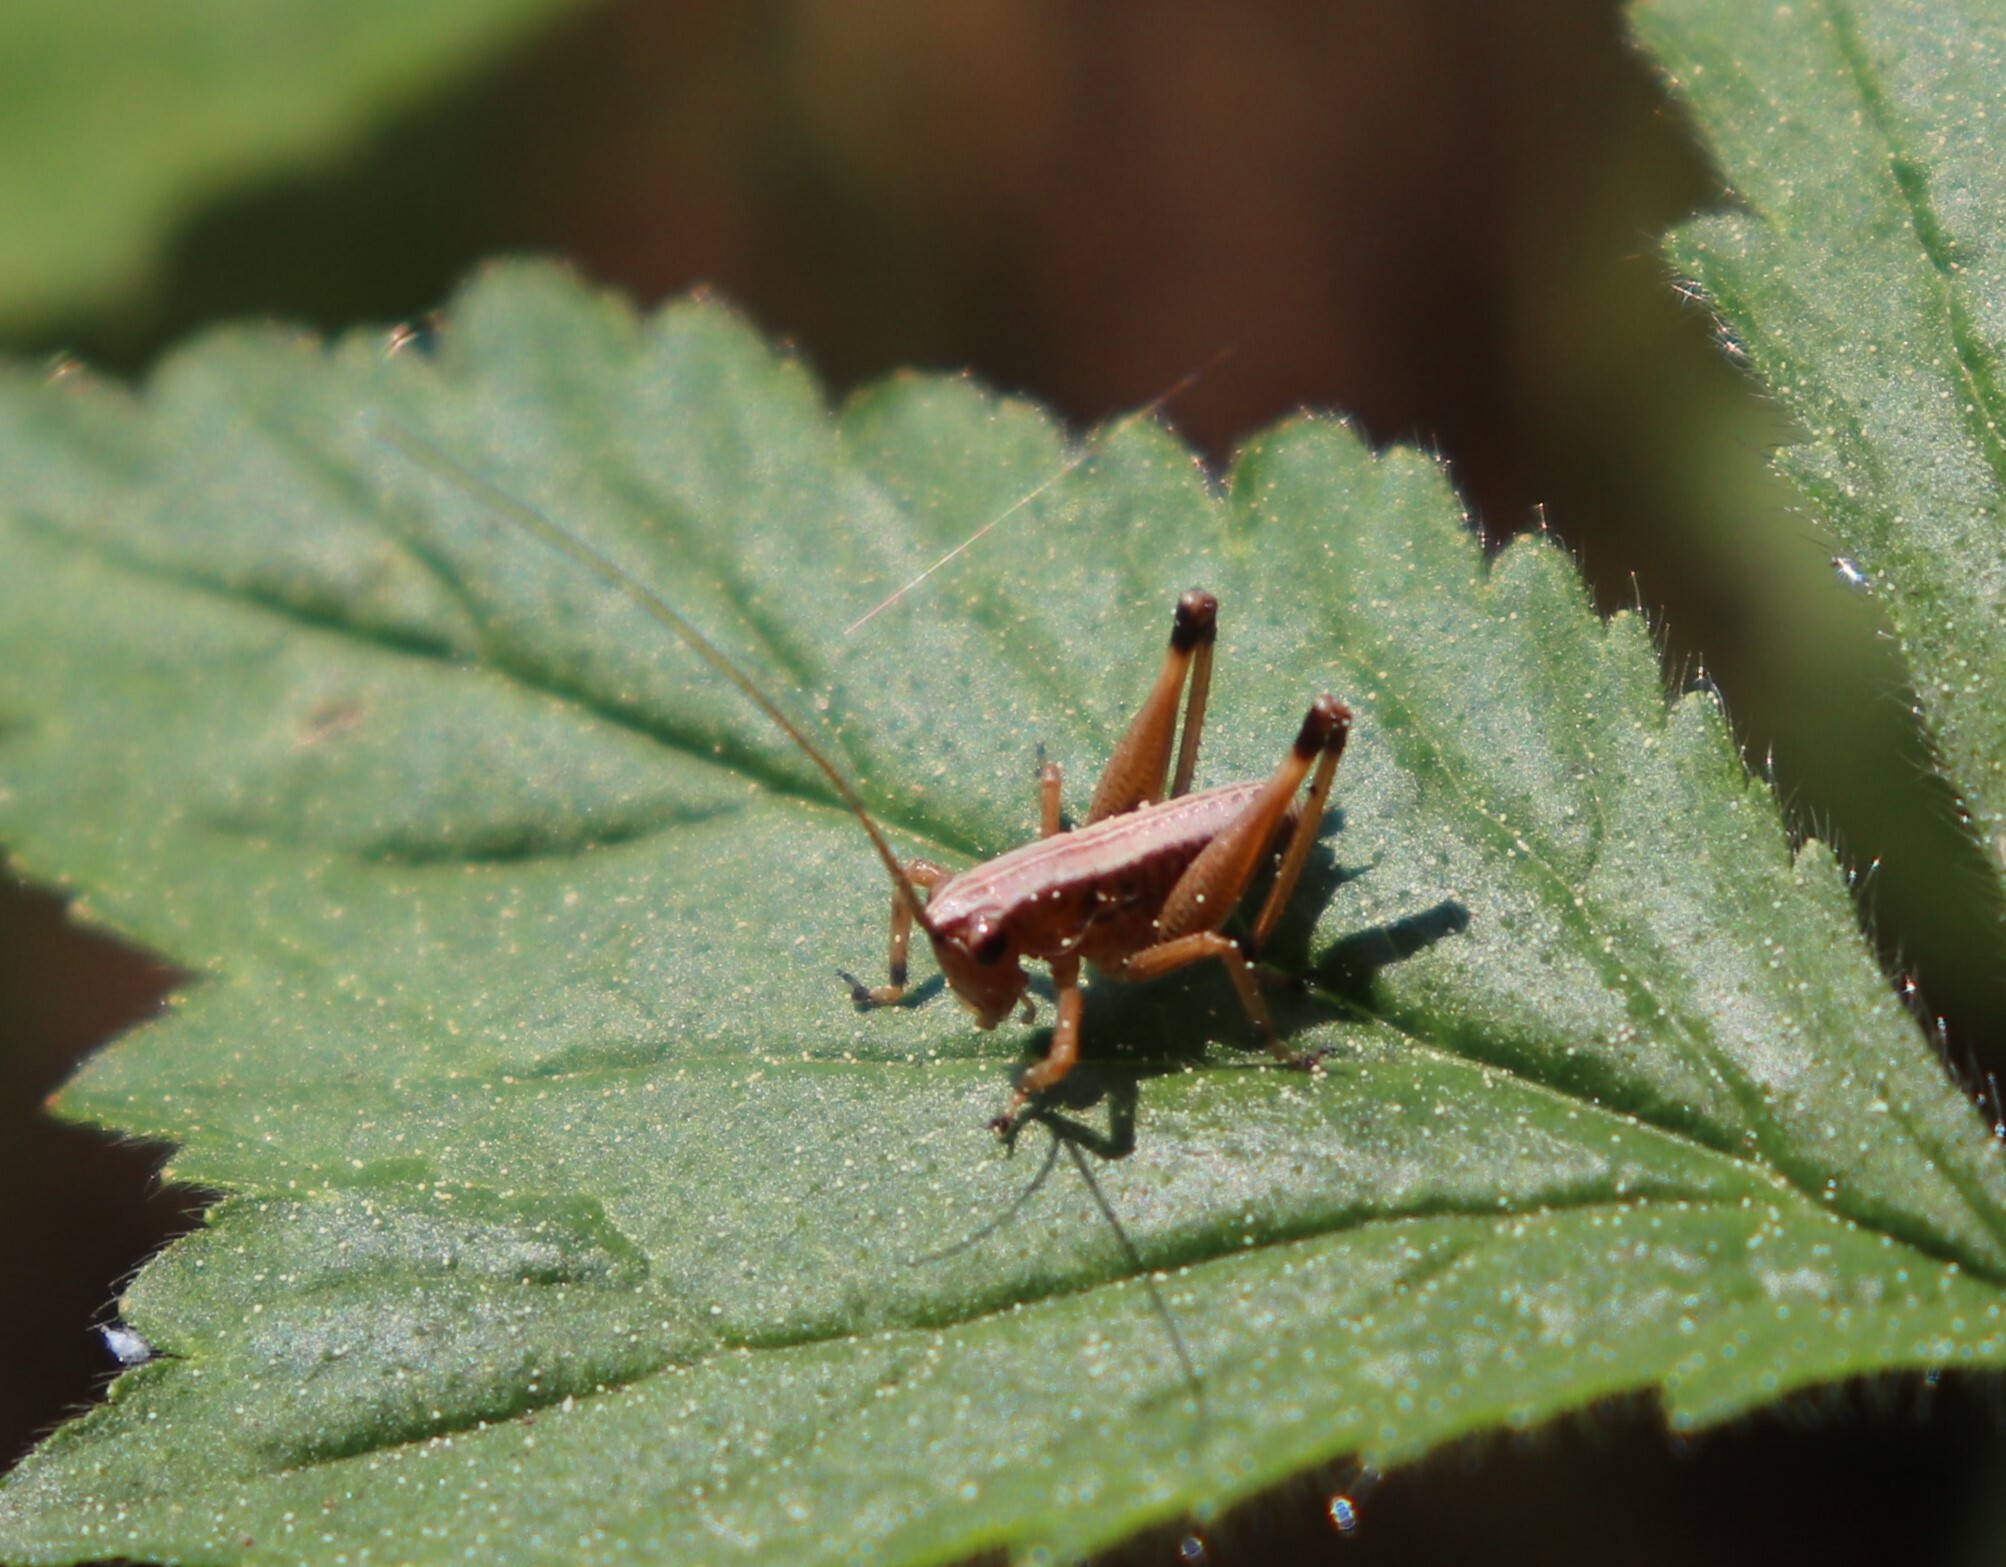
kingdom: Animalia
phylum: Arthropoda
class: Insecta
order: Orthoptera
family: Tettigoniidae
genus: Pholidoptera
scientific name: Pholidoptera griseoaptera
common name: Dark bush-cricket
